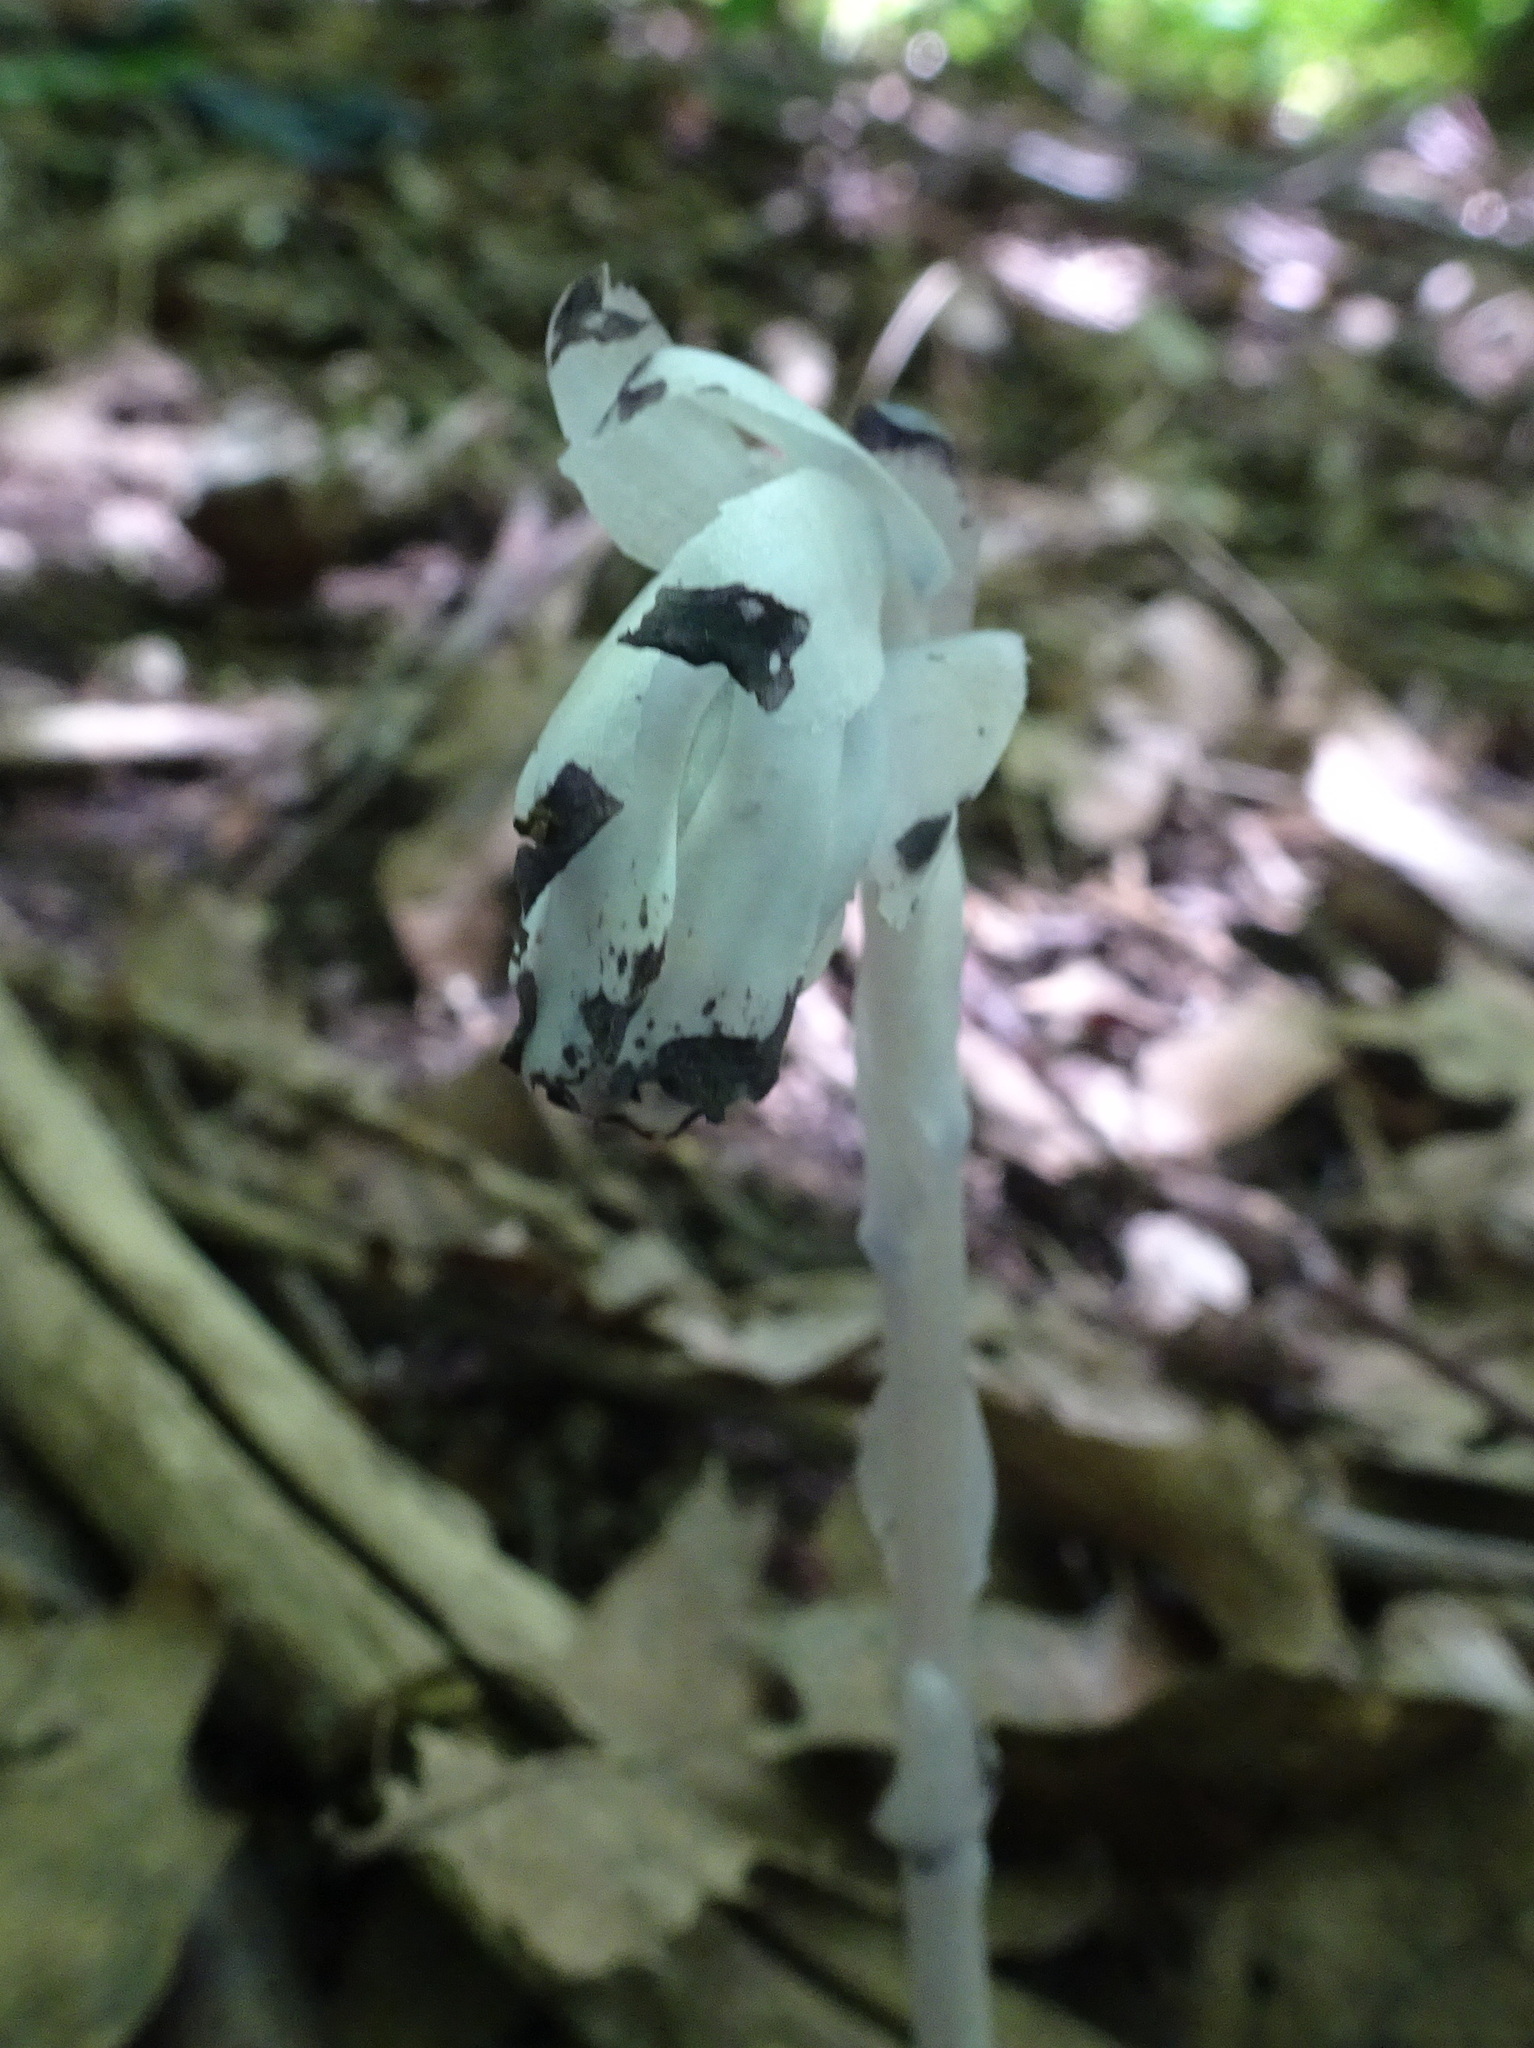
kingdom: Plantae
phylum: Tracheophyta
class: Magnoliopsida
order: Ericales
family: Ericaceae
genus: Monotropa
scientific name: Monotropa uniflora
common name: Convulsion root
